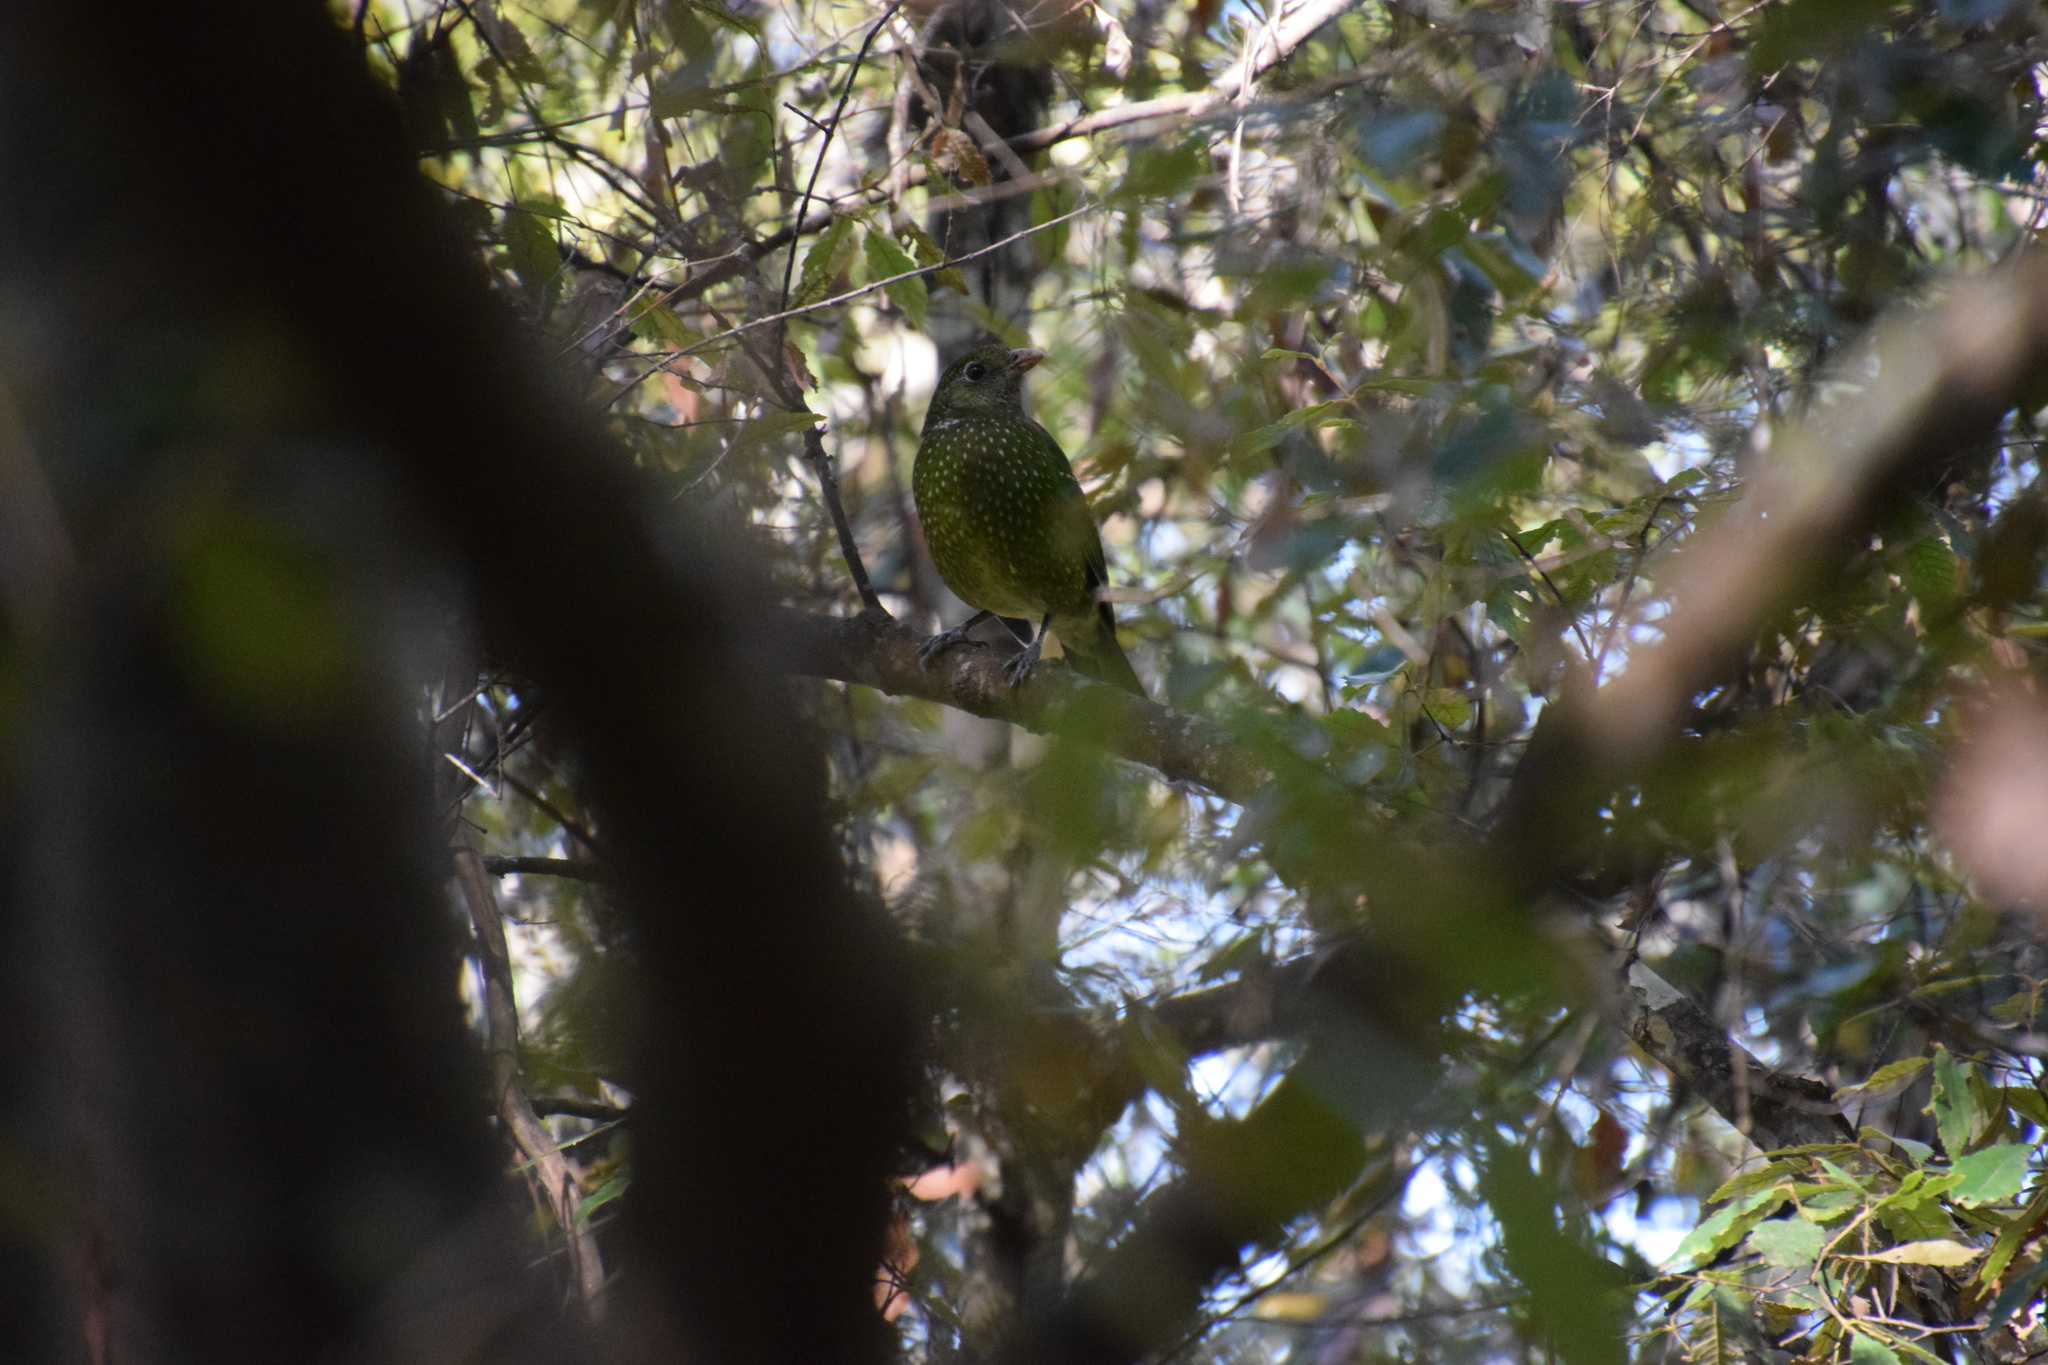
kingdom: Animalia
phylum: Chordata
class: Aves
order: Passeriformes
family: Ptilonorhynchidae
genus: Ailuroedus
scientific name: Ailuroedus crassirostris
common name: Green catbird
